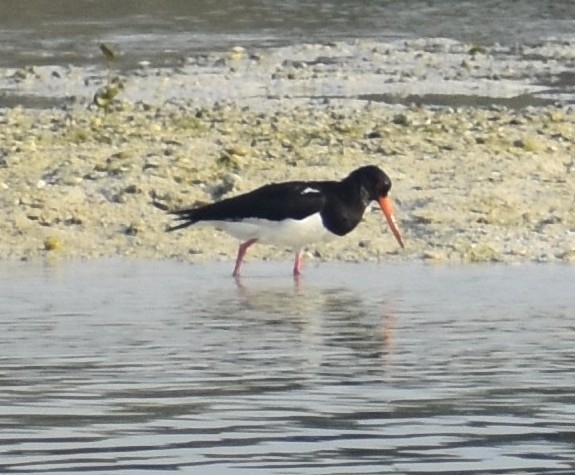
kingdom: Animalia
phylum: Chordata
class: Aves
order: Charadriiformes
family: Haematopodidae
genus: Haematopus
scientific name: Haematopus ostralegus
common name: Eurasian oystercatcher
